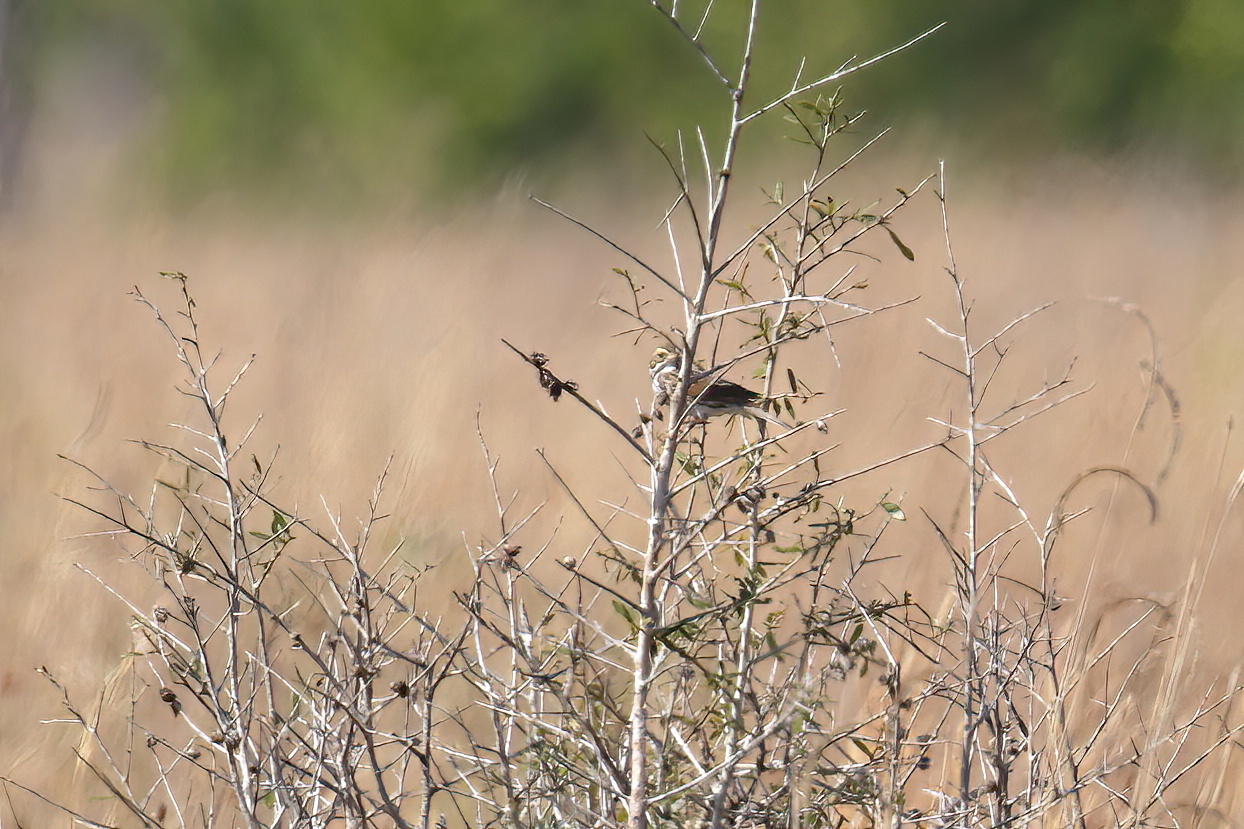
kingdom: Animalia
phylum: Chordata
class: Aves
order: Passeriformes
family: Passerellidae
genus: Passerculus
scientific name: Passerculus sandwichensis
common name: Savannah sparrow
